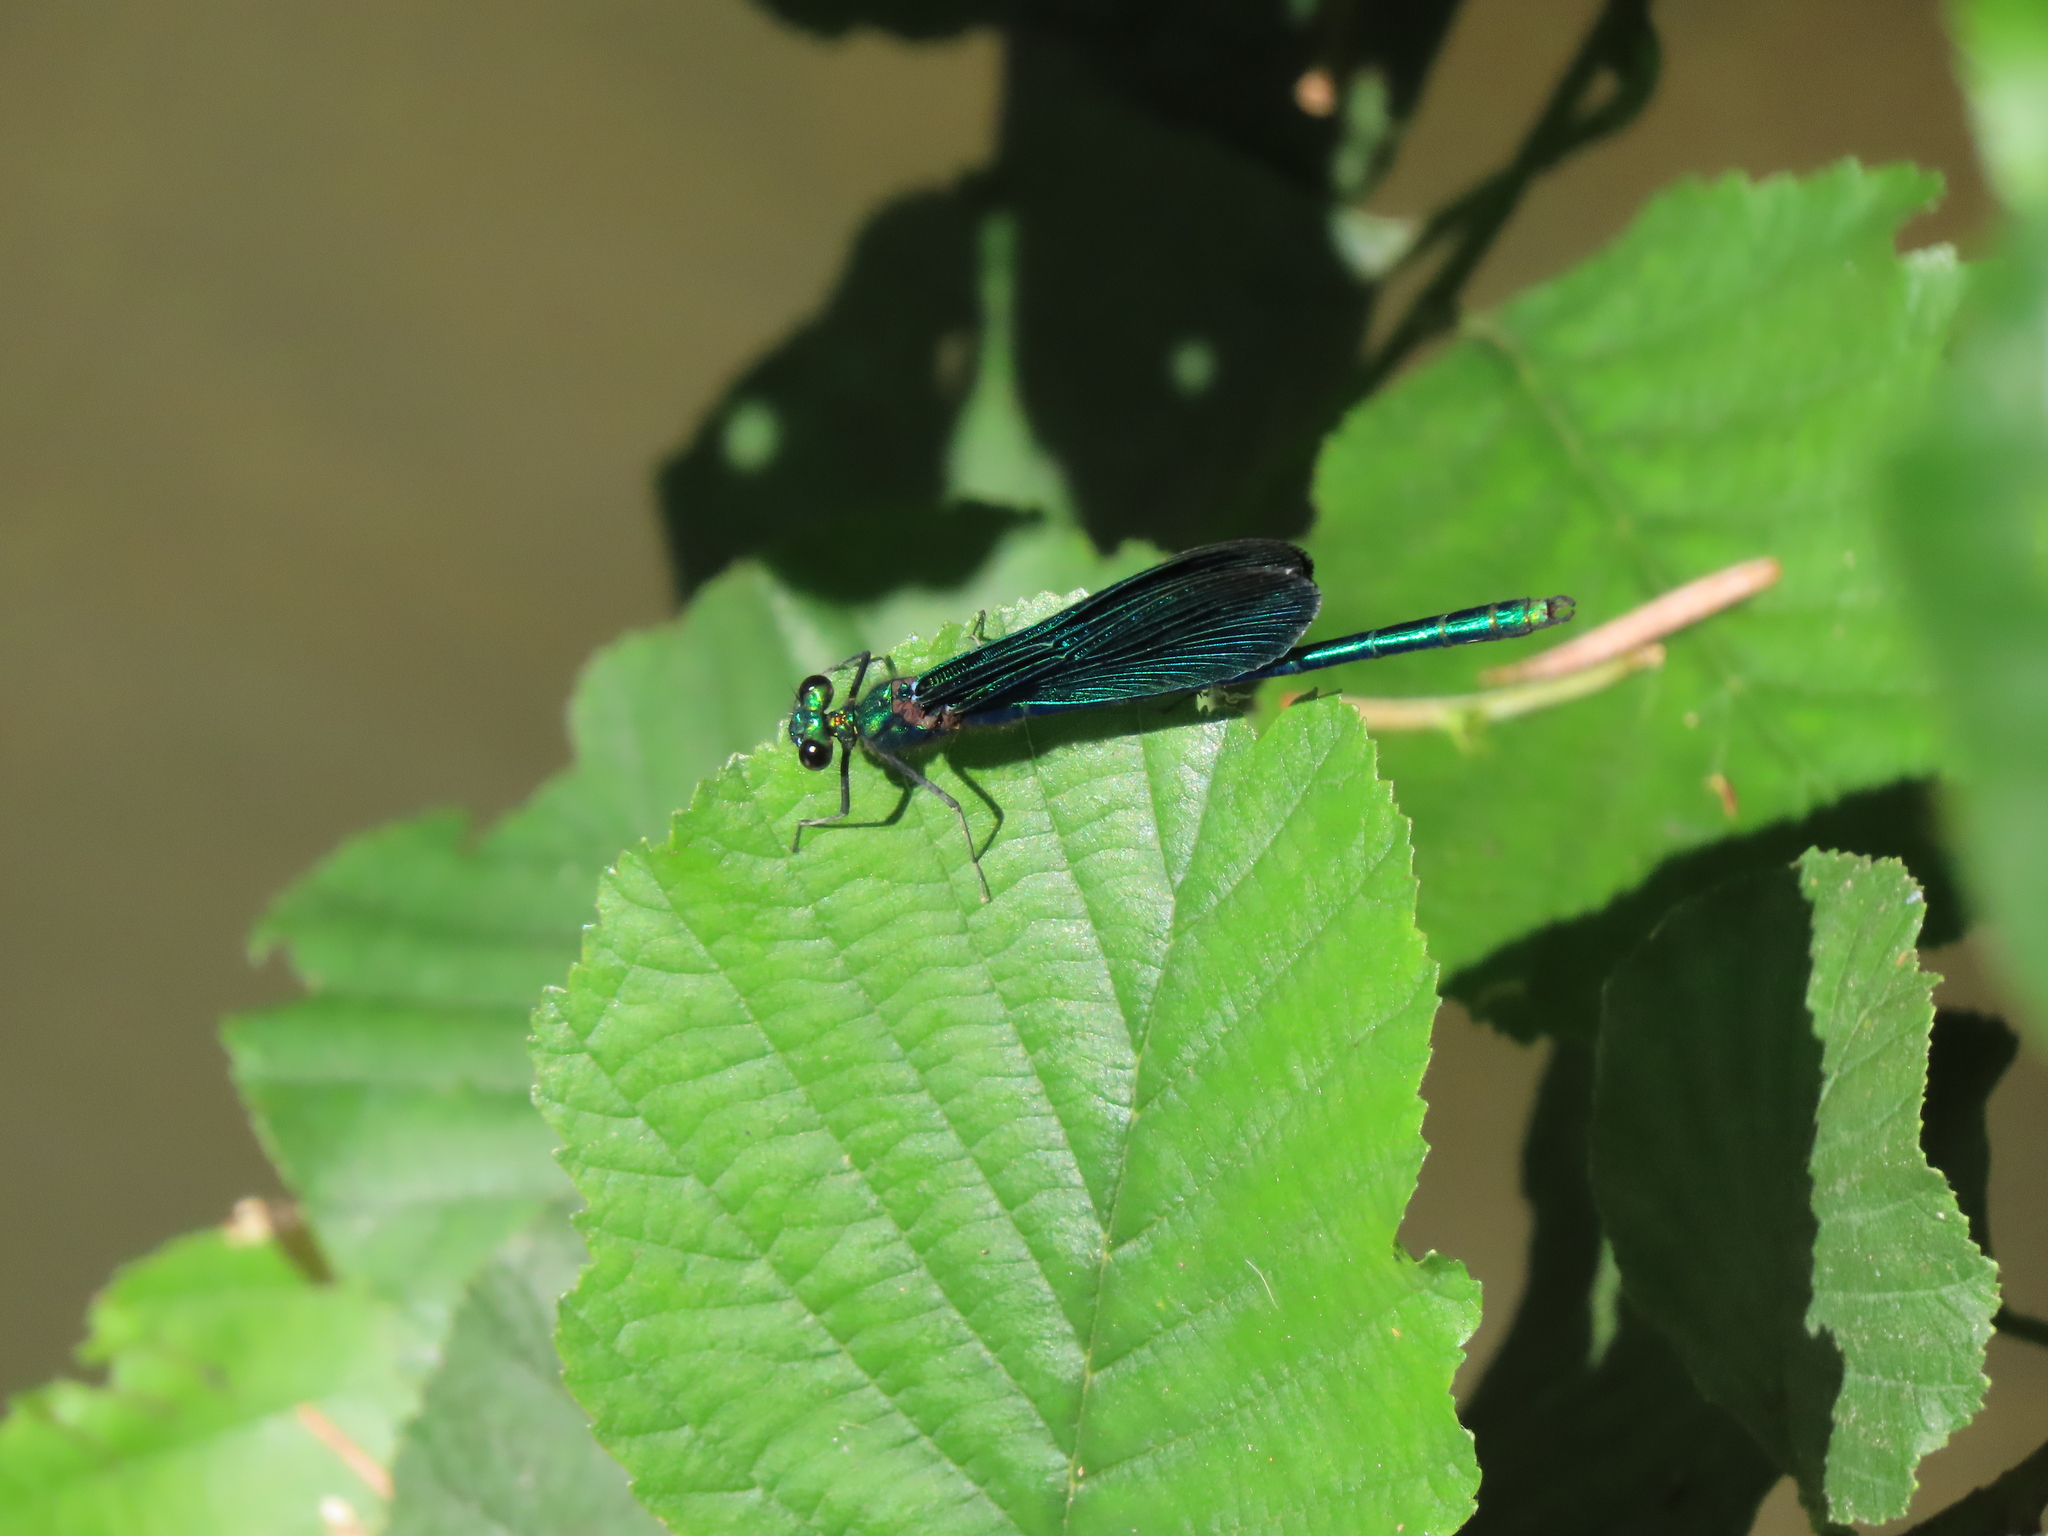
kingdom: Animalia
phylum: Arthropoda
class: Insecta
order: Odonata
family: Calopterygidae
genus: Calopteryx
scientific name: Calopteryx virgo
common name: Beautiful demoiselle
